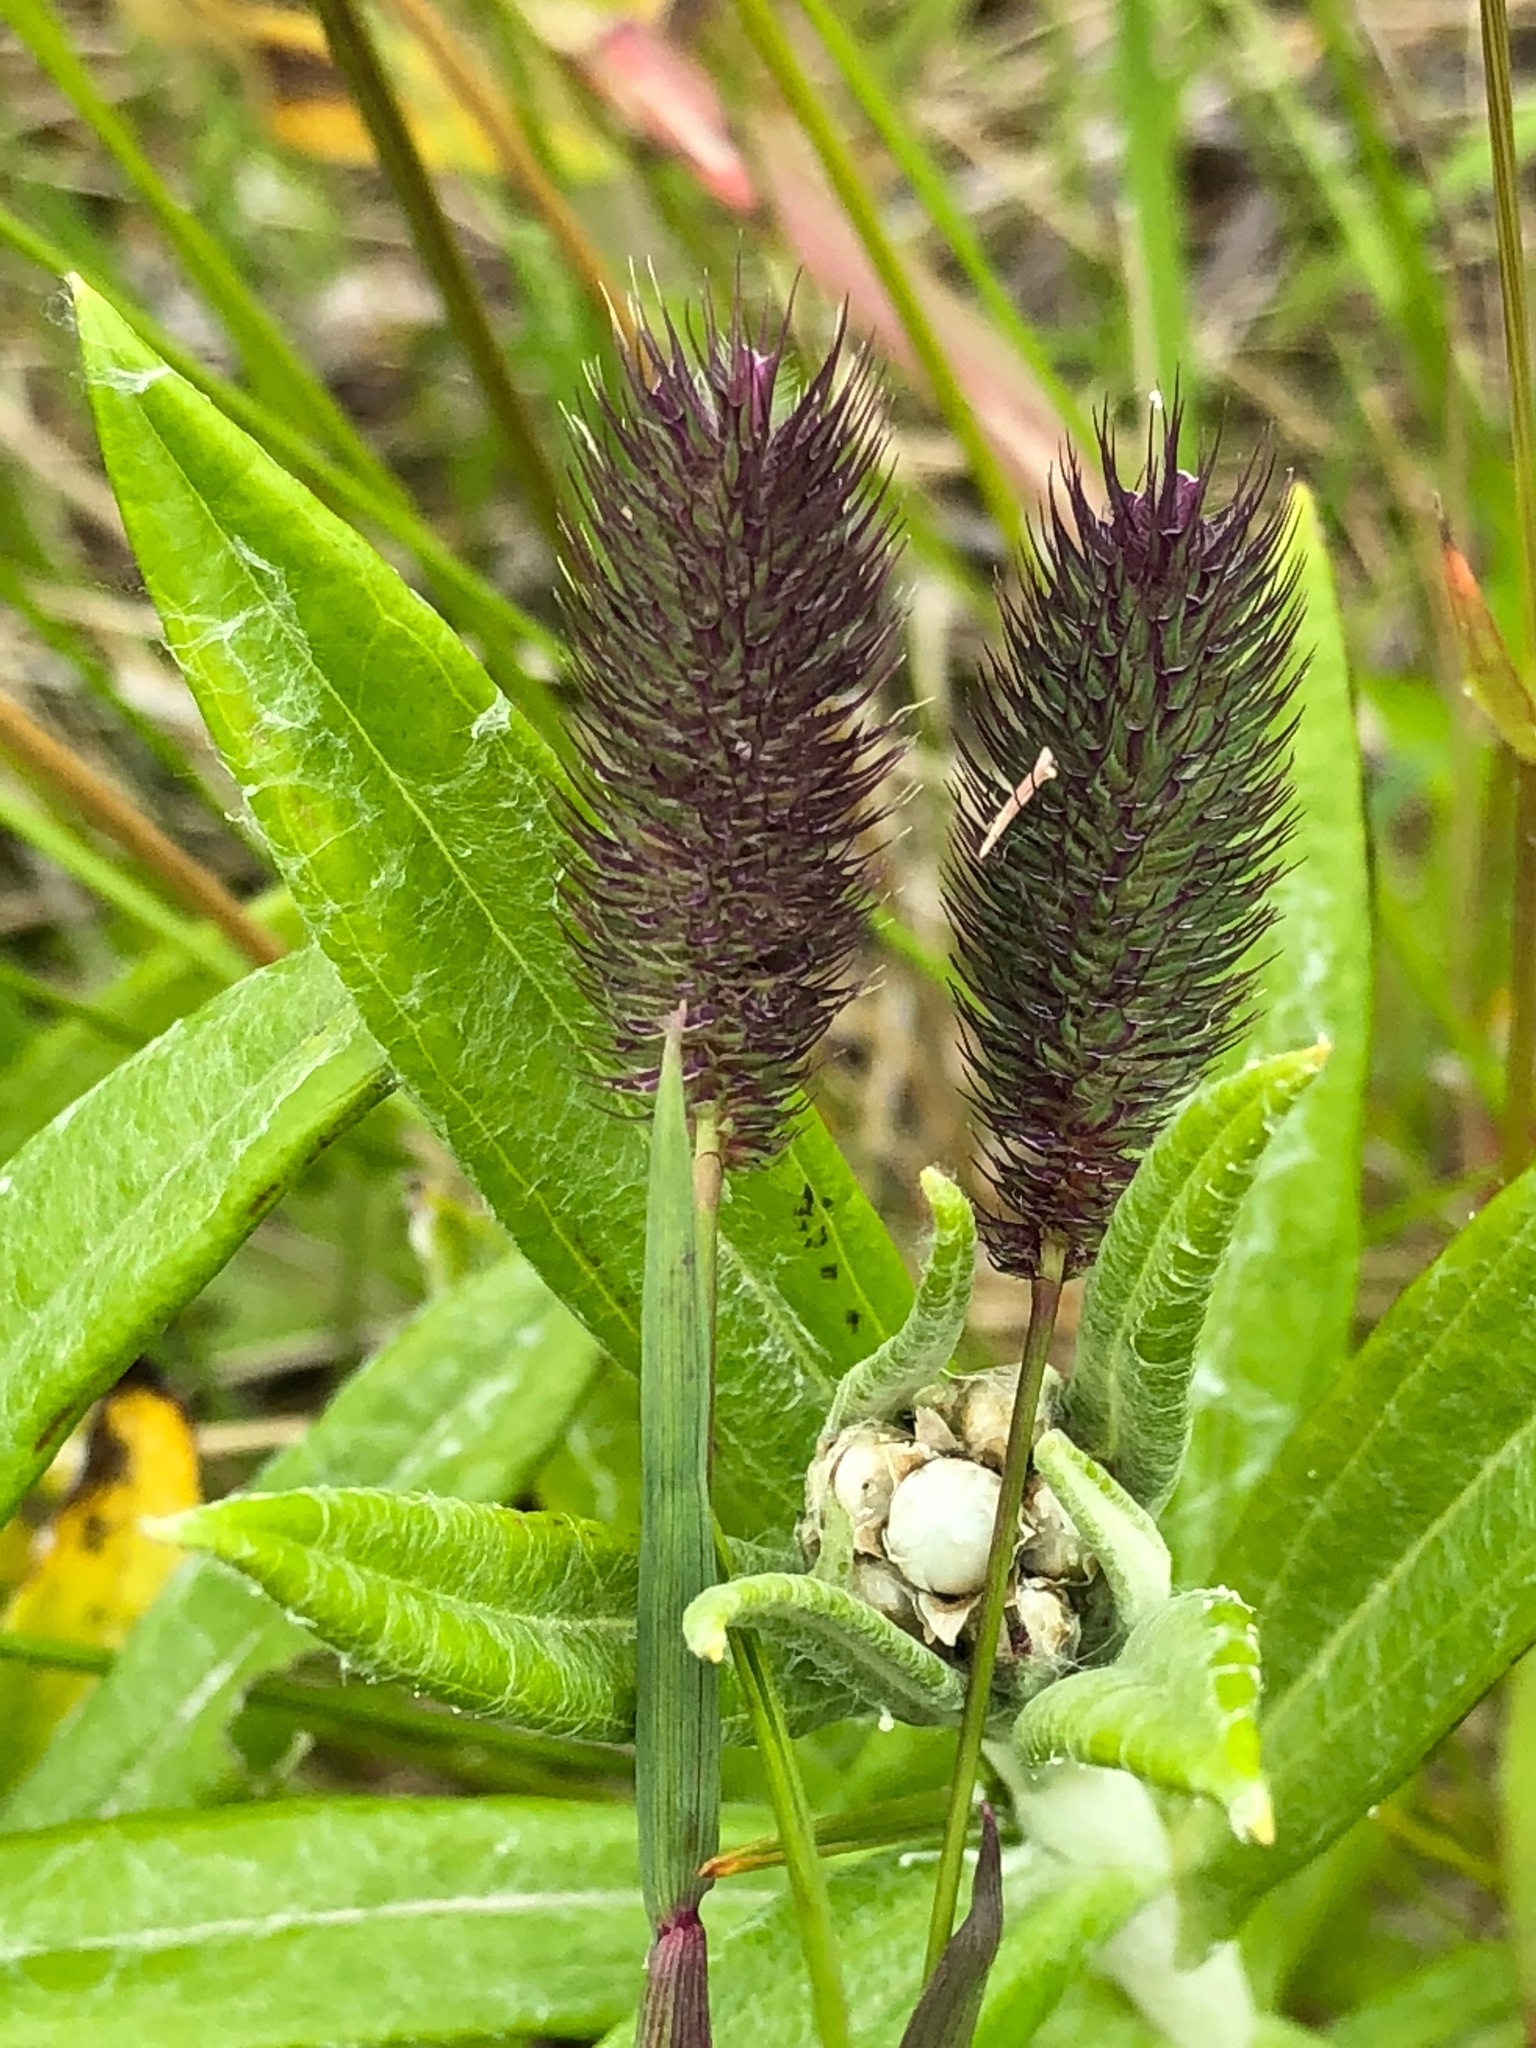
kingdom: Plantae
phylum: Tracheophyta
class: Liliopsida
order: Poales
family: Poaceae
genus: Phleum
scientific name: Phleum alpinum
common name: Alpine cat's-tail
